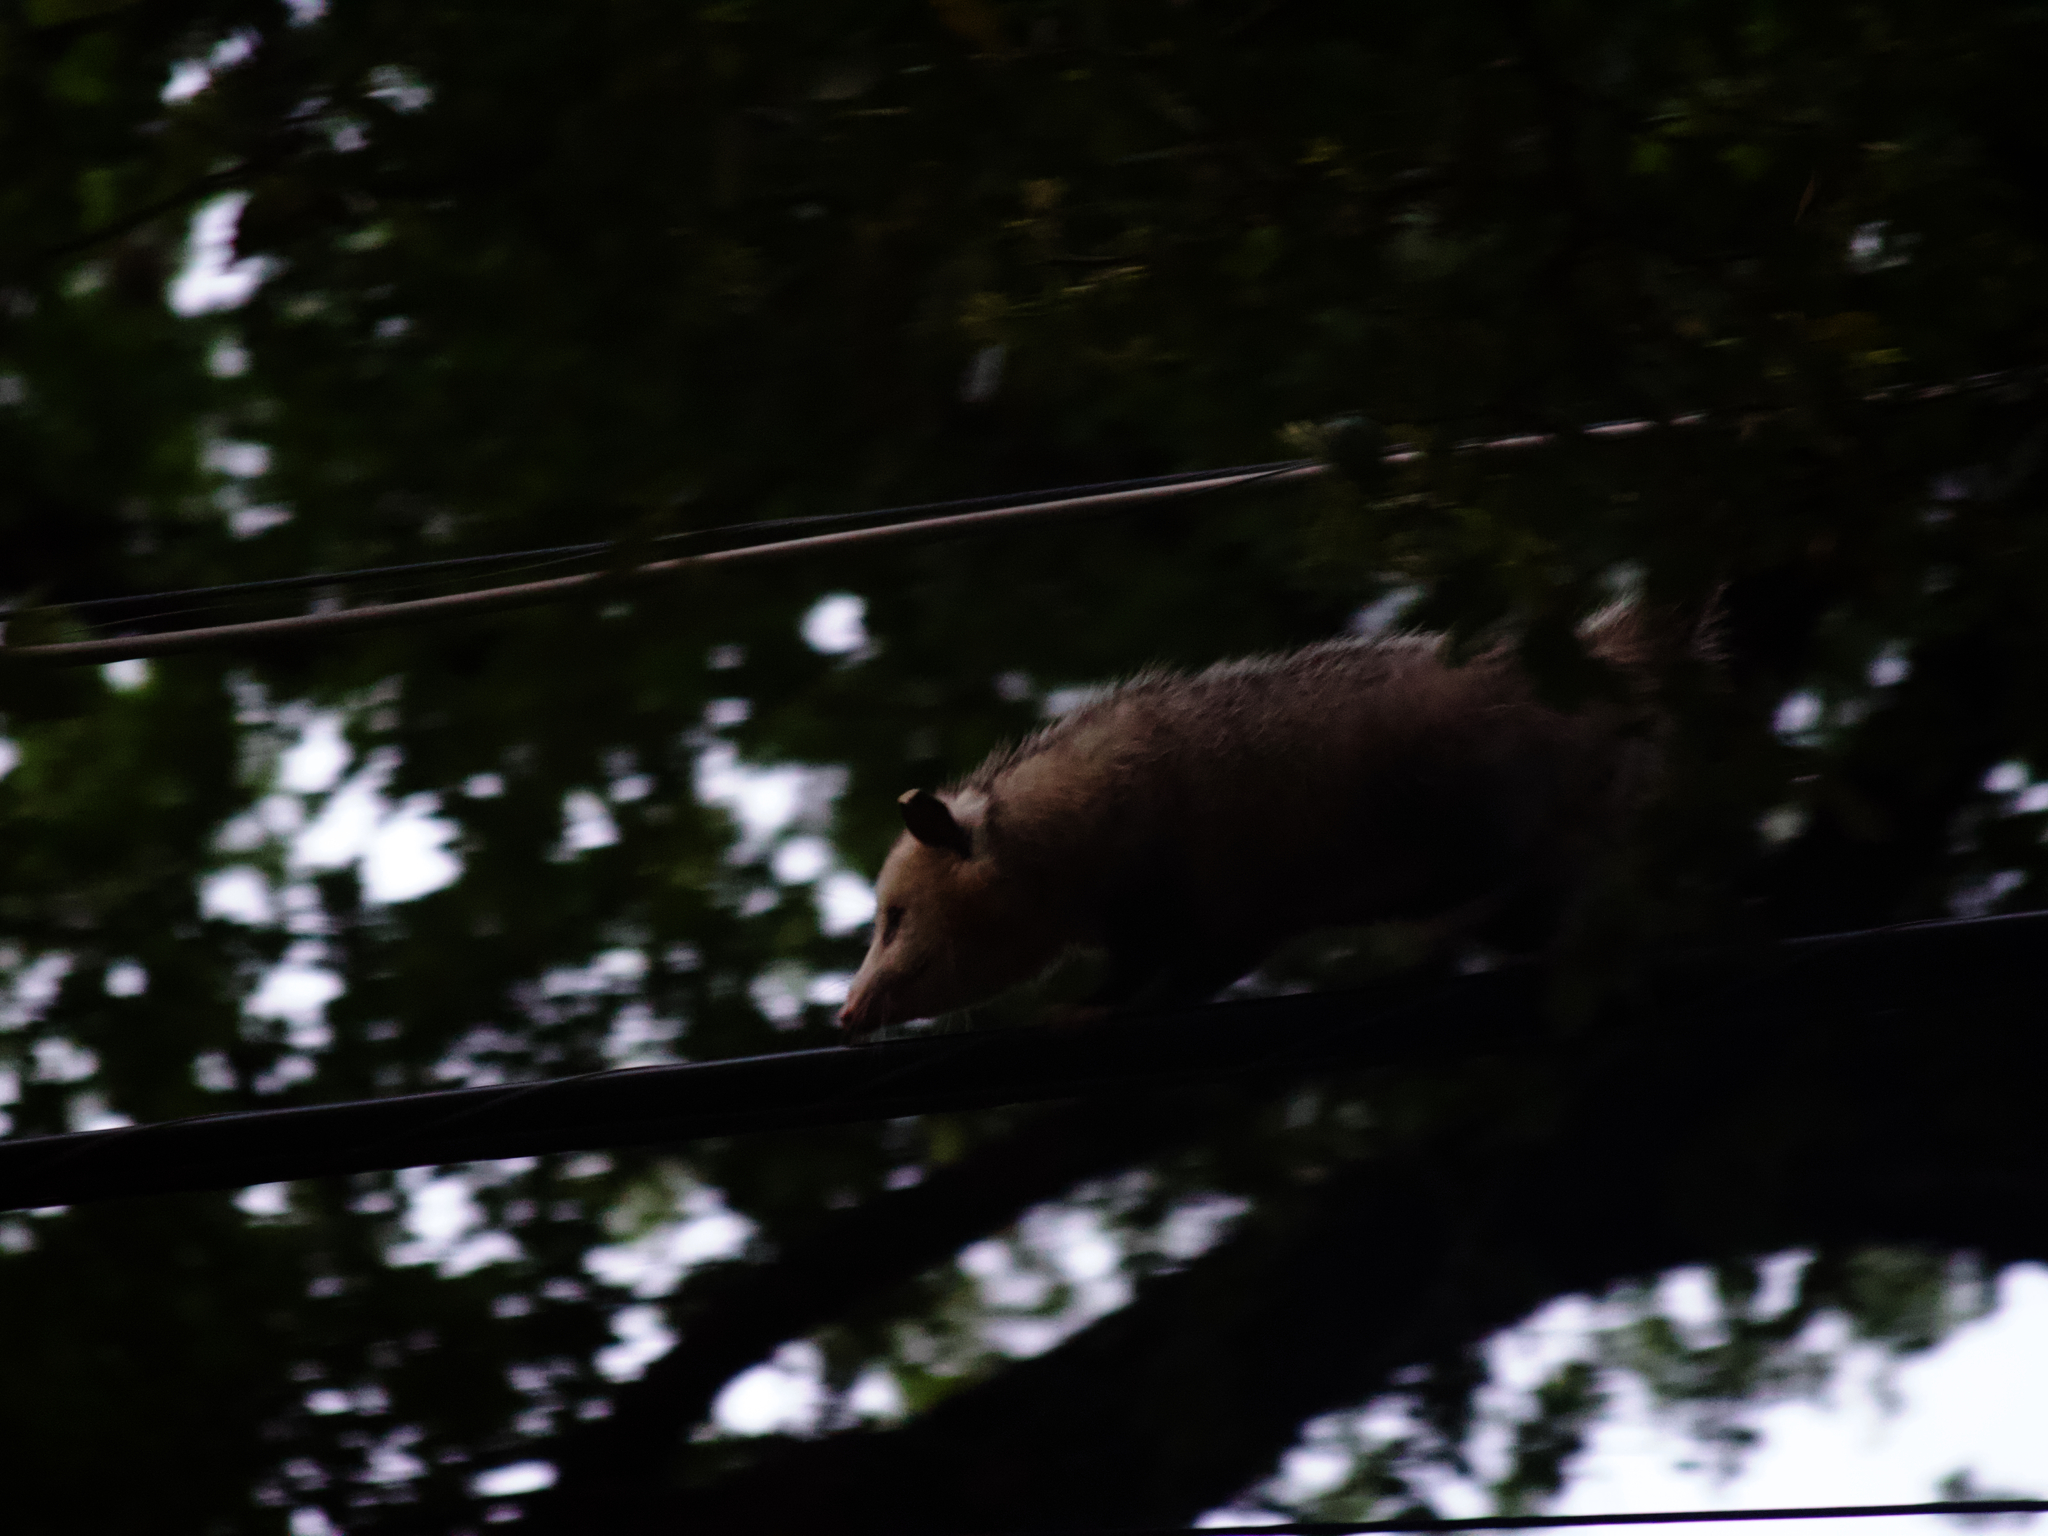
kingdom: Animalia
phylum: Chordata
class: Mammalia
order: Didelphimorphia
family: Didelphidae
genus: Didelphis
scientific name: Didelphis virginiana
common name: Virginia opossum
